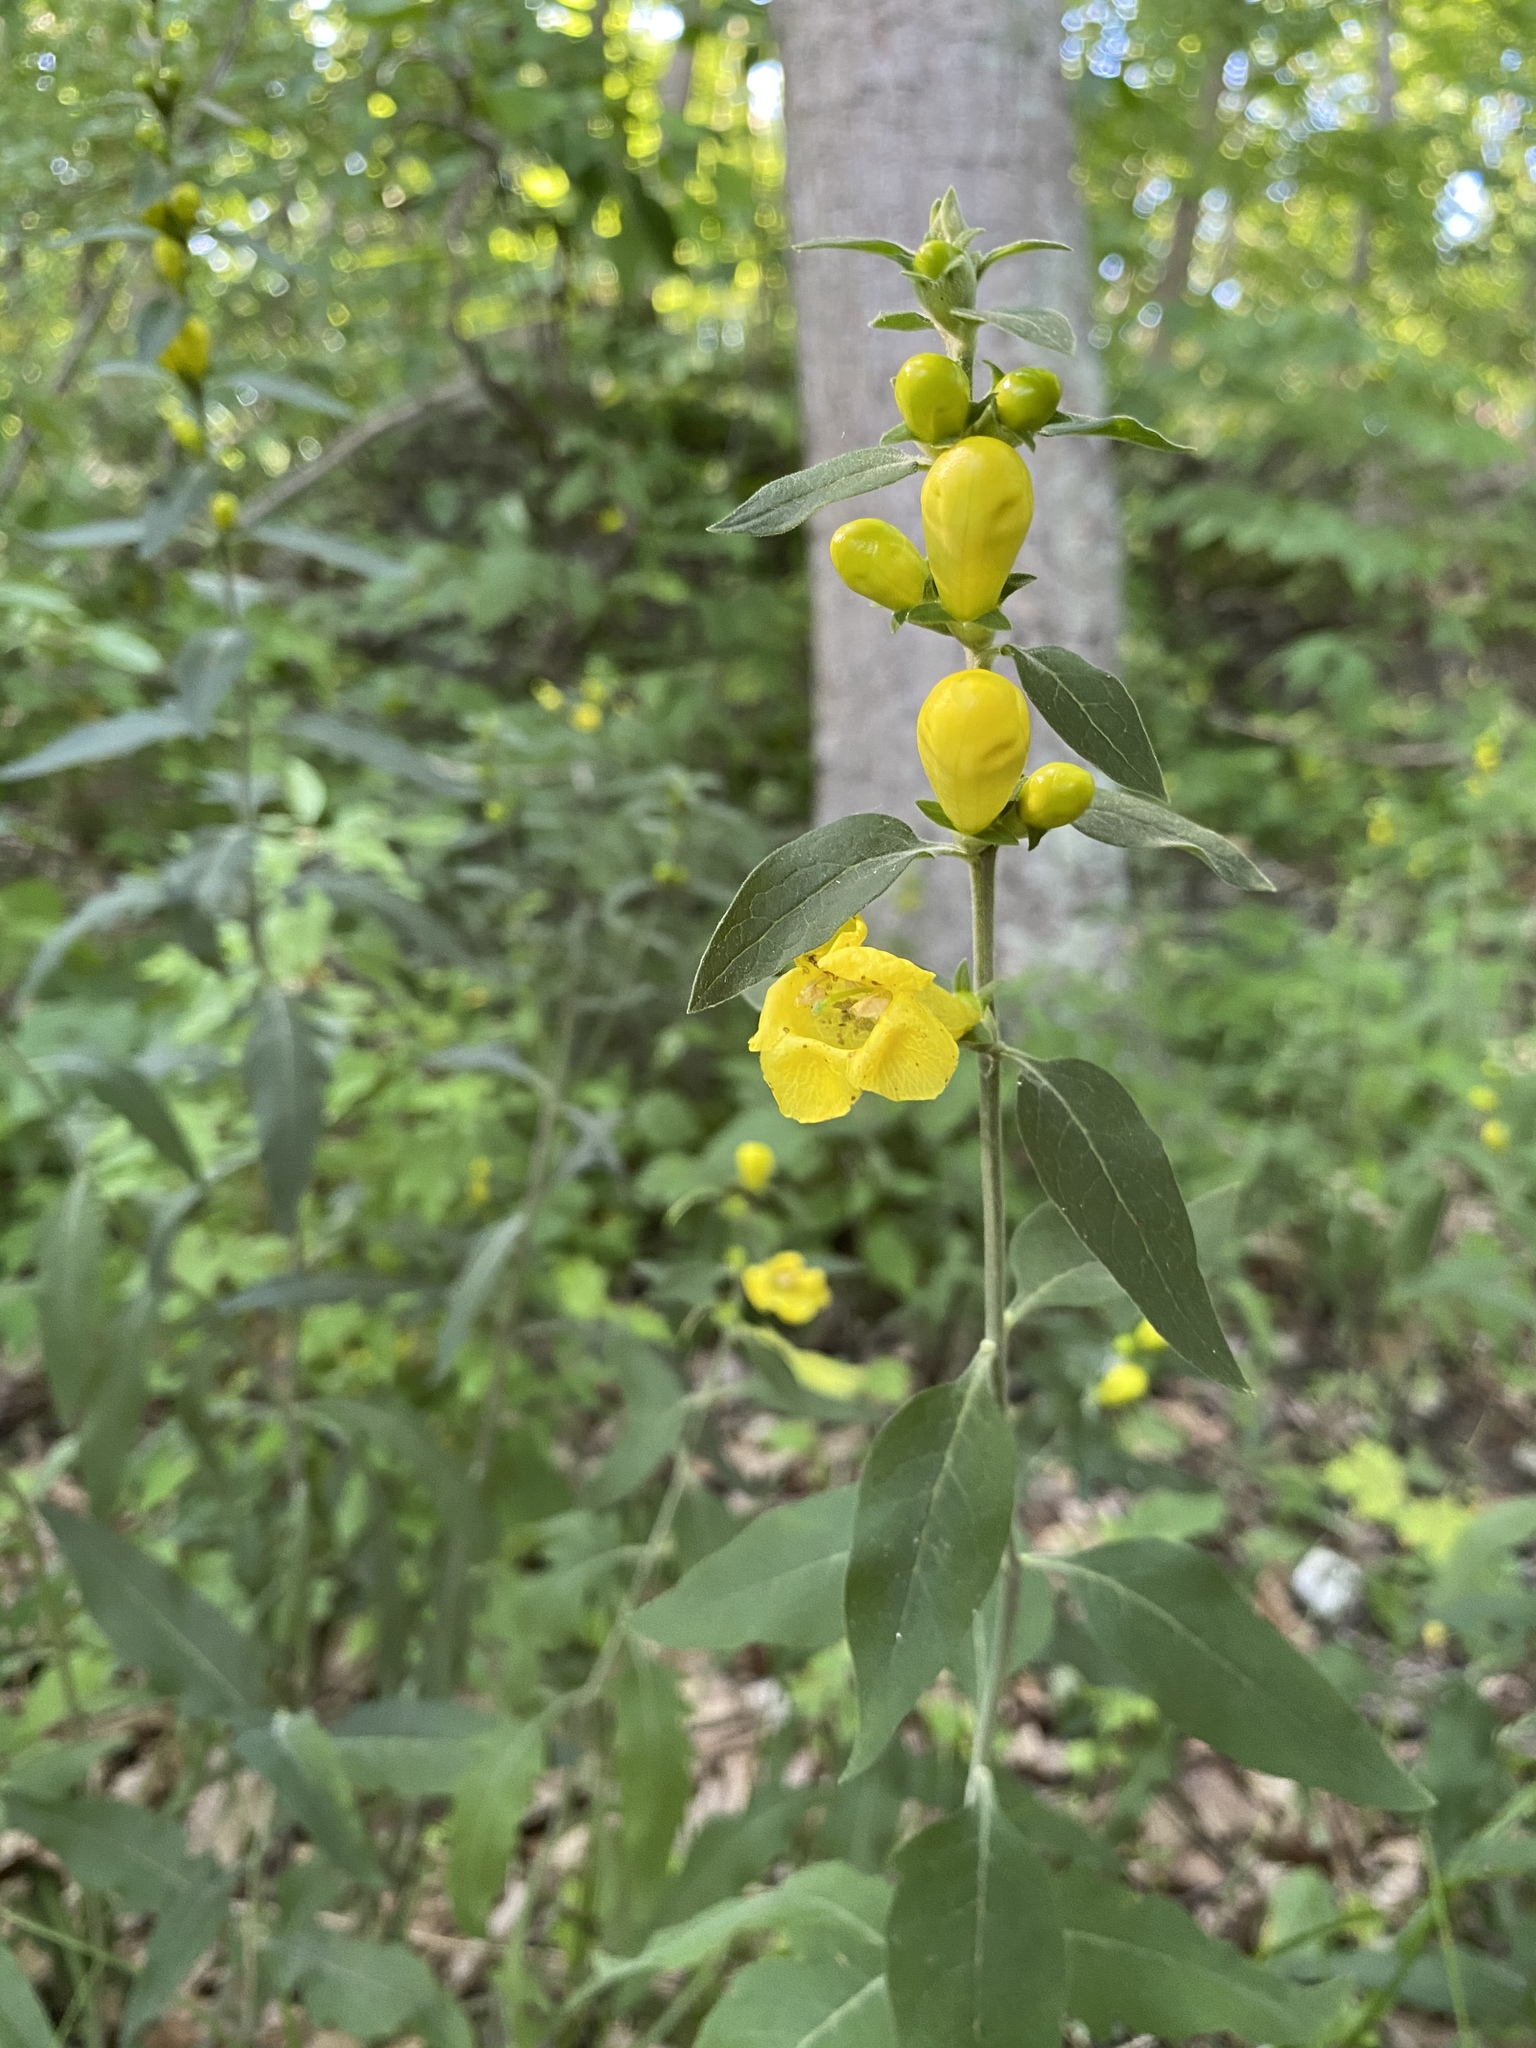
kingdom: Plantae
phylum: Tracheophyta
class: Magnoliopsida
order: Lamiales
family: Orobanchaceae
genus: Aureolaria
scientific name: Aureolaria virginica
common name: Downy false foxglove
